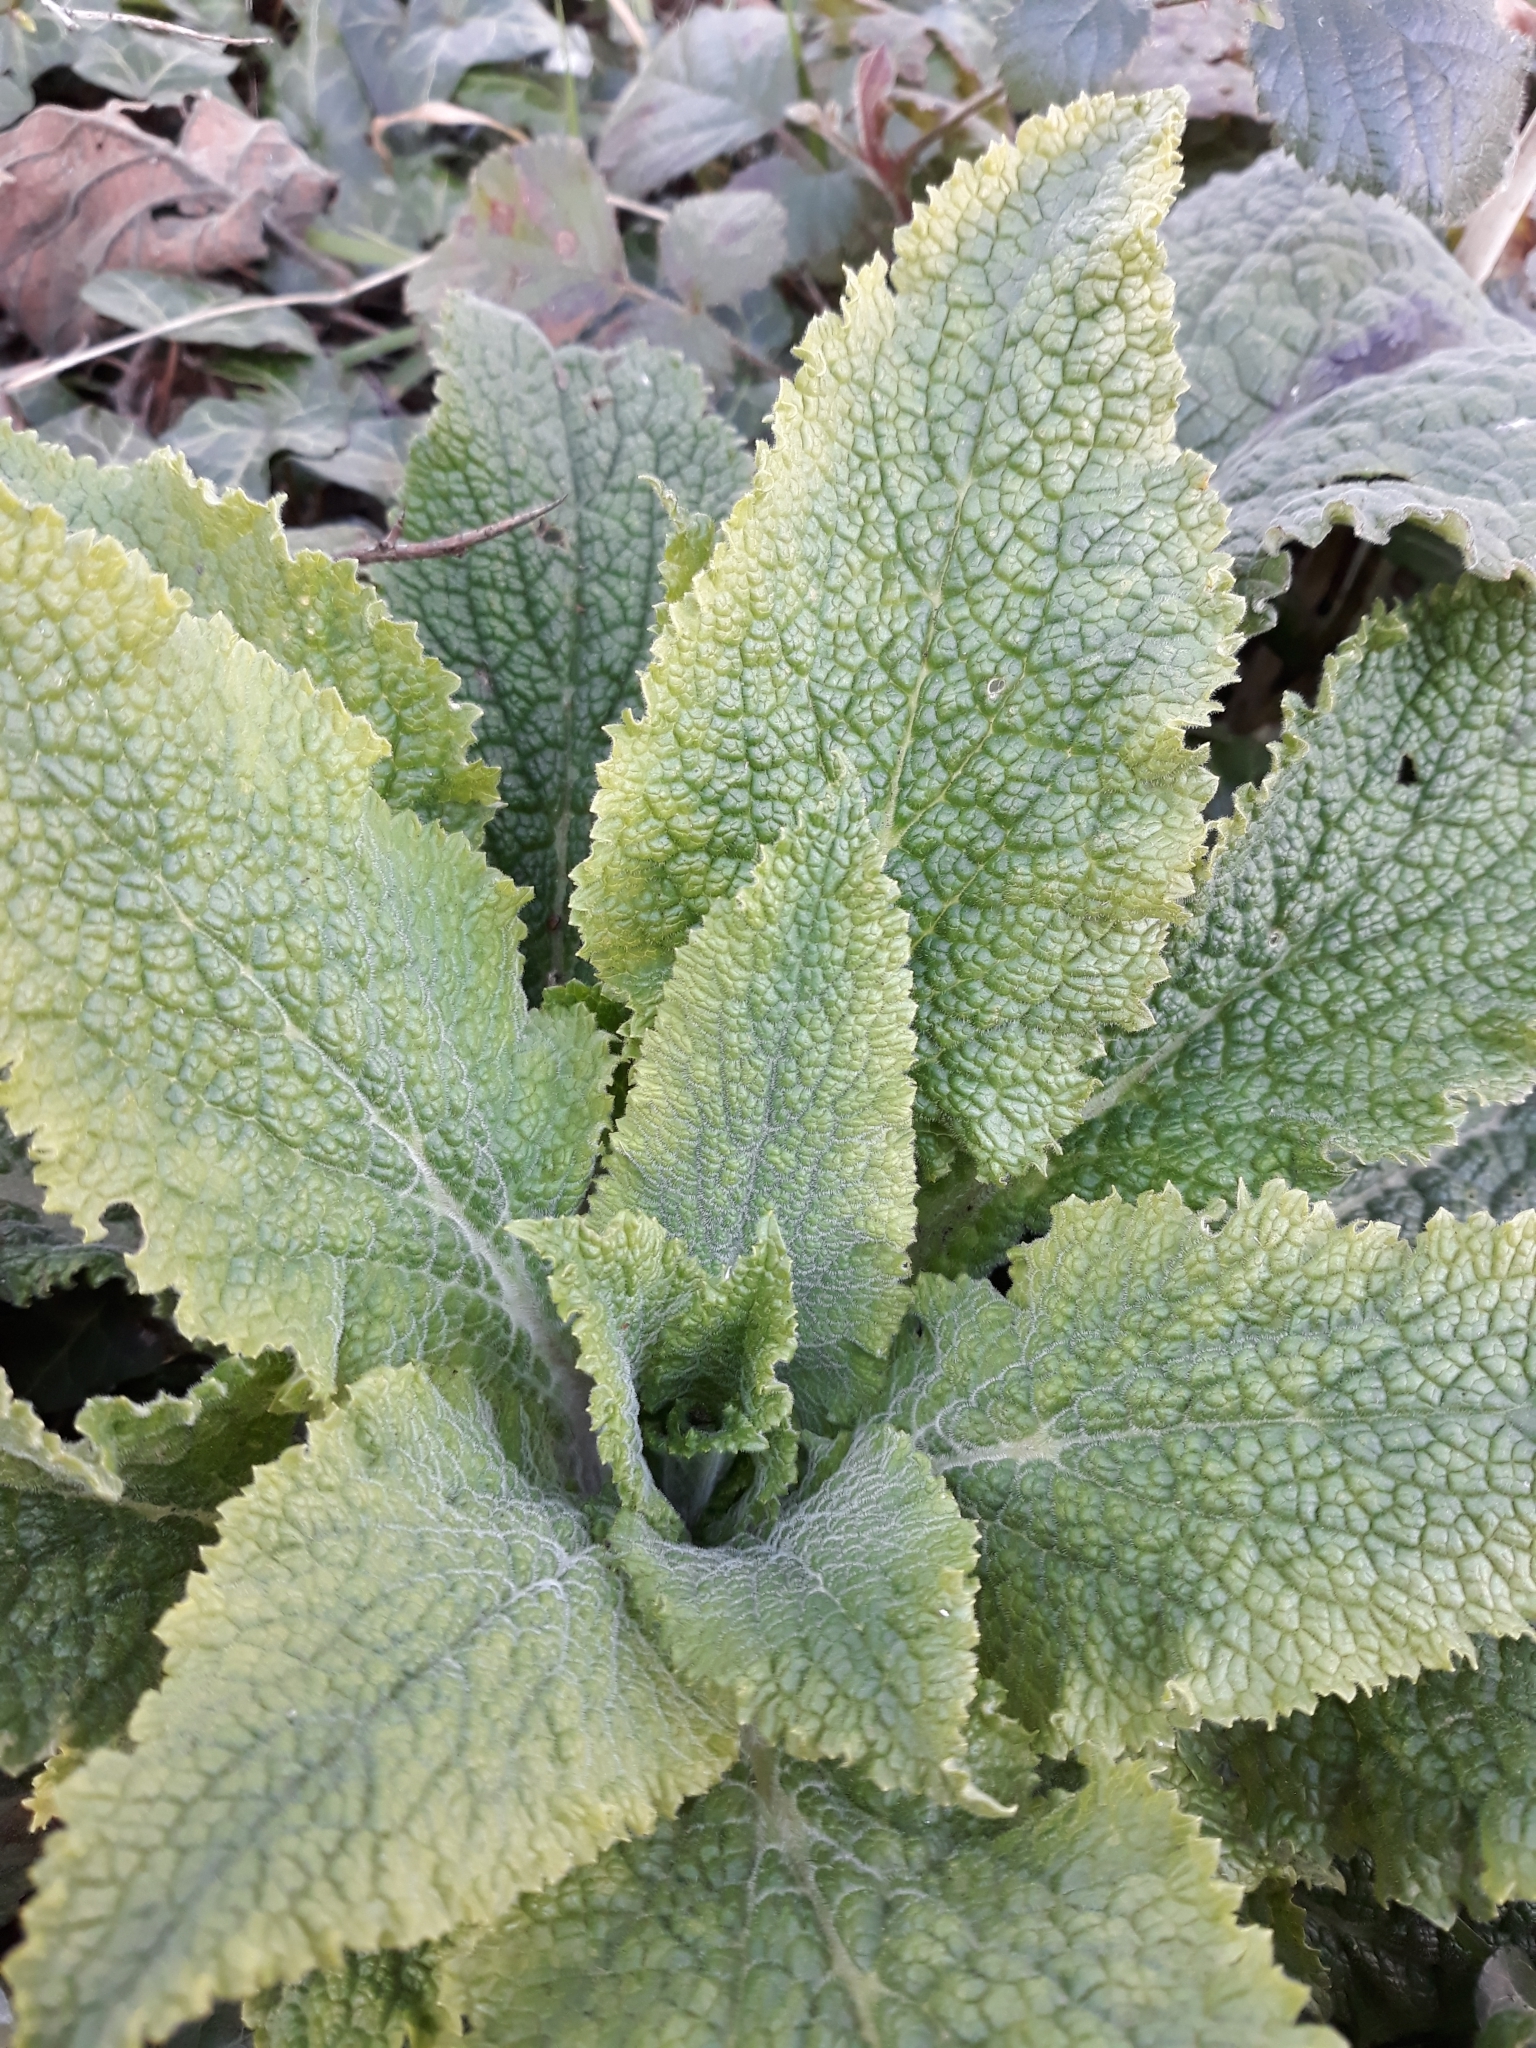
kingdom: Plantae
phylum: Tracheophyta
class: Magnoliopsida
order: Lamiales
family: Plantaginaceae
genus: Digitalis
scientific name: Digitalis purpurea
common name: Foxglove
